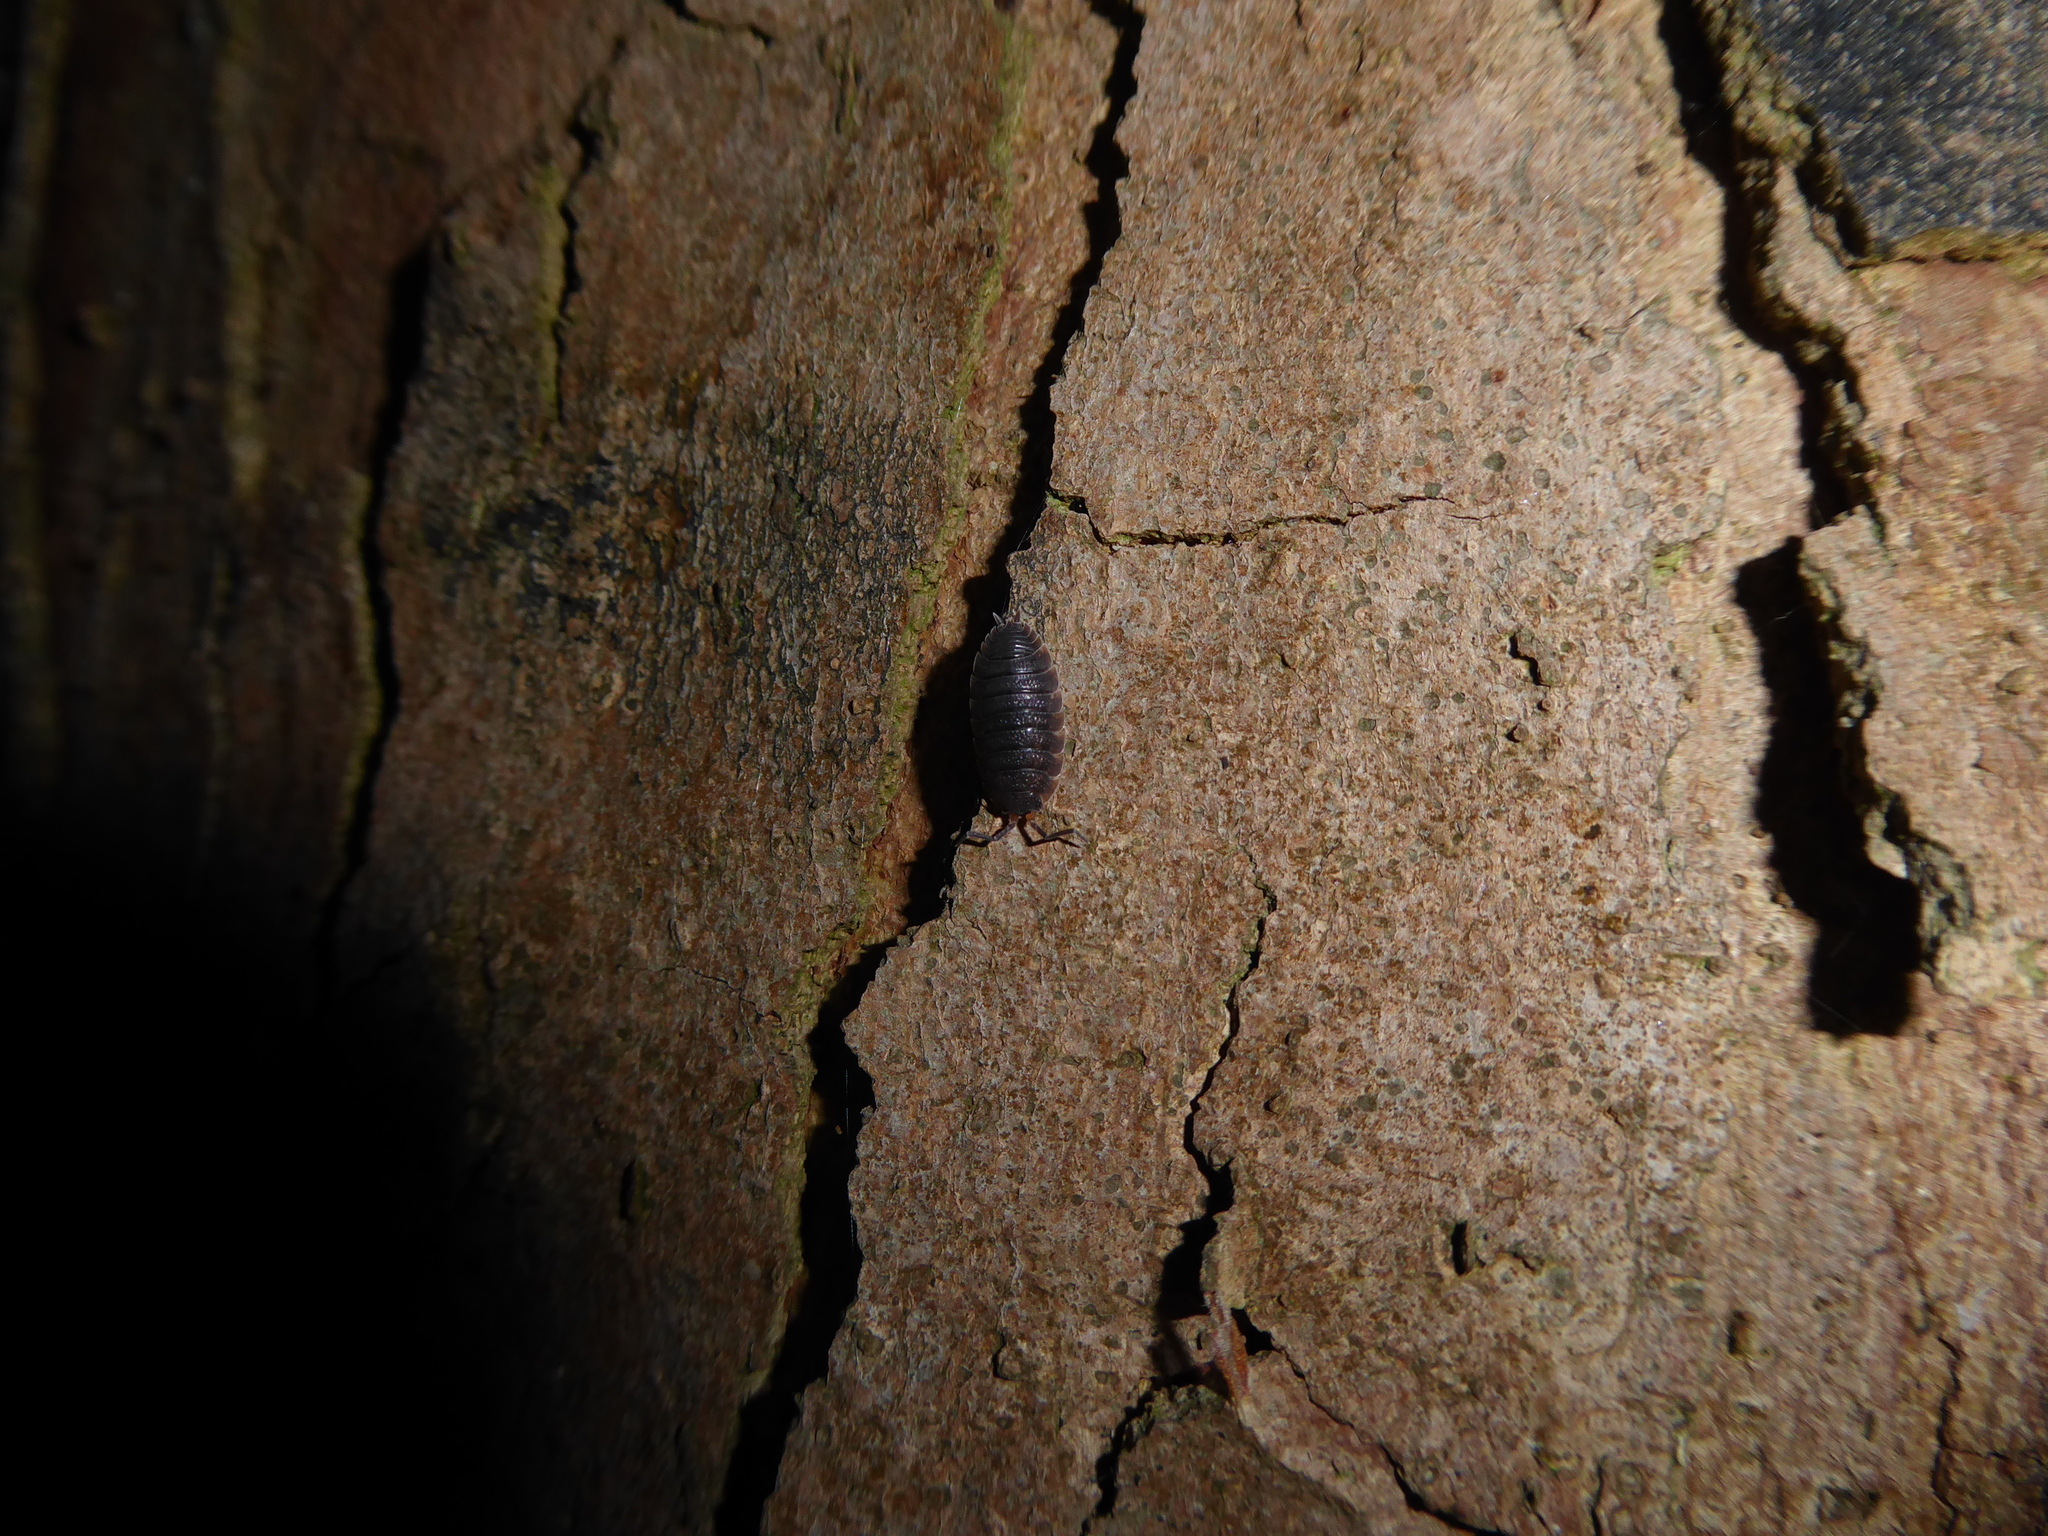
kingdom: Animalia
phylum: Arthropoda
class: Malacostraca
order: Isopoda
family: Porcellionidae
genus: Porcellio
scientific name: Porcellio scaber
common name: Common rough woodlouse
